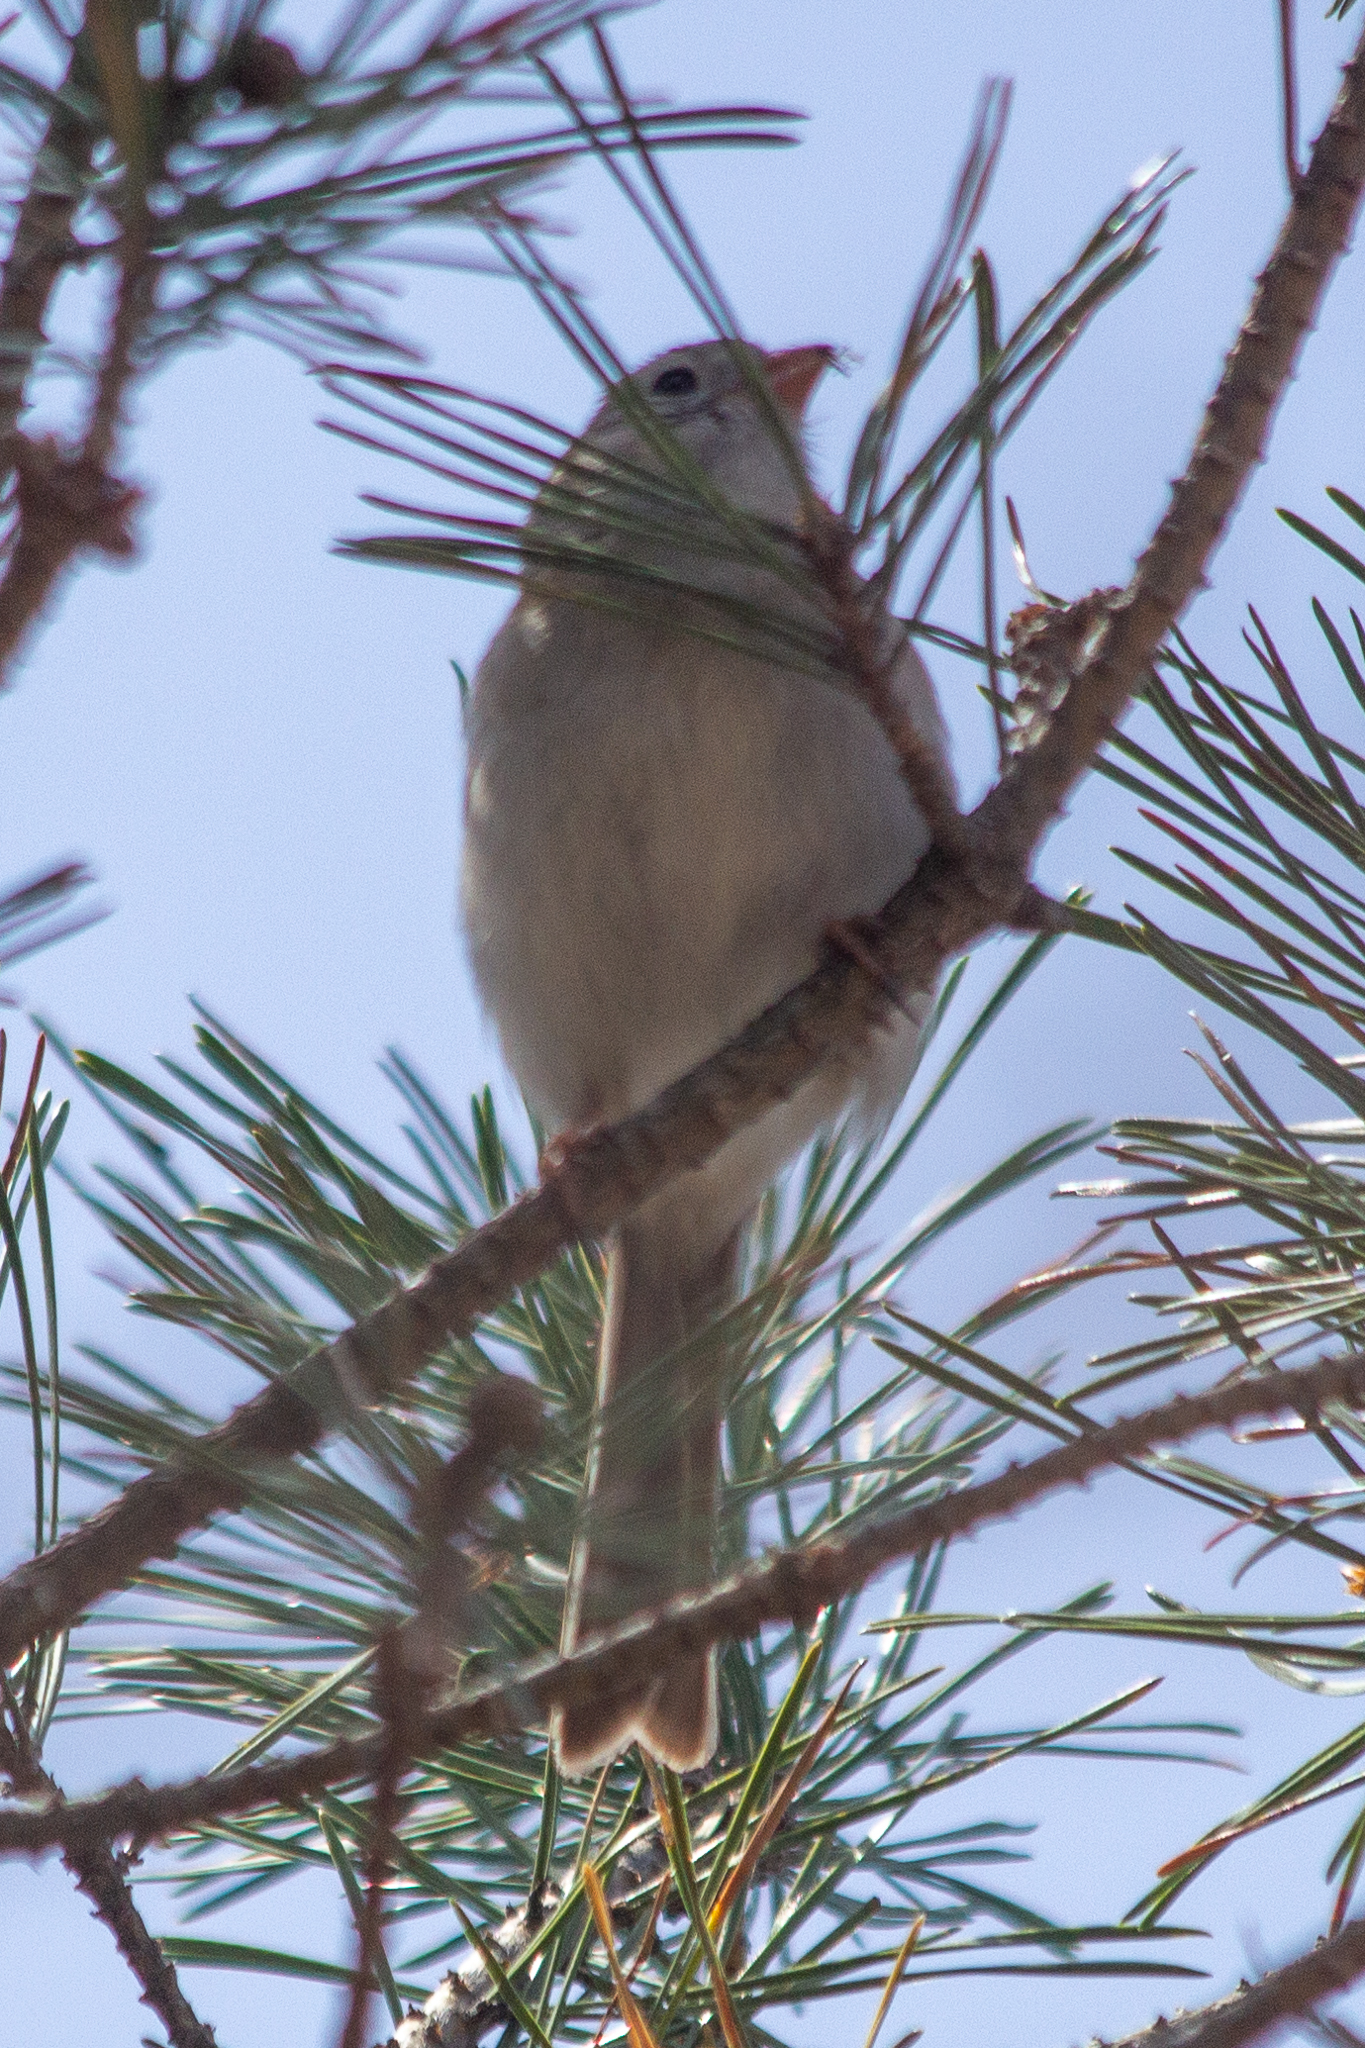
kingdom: Animalia
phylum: Chordata
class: Aves
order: Passeriformes
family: Passerellidae
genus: Spizella
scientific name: Spizella pusilla
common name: Field sparrow
